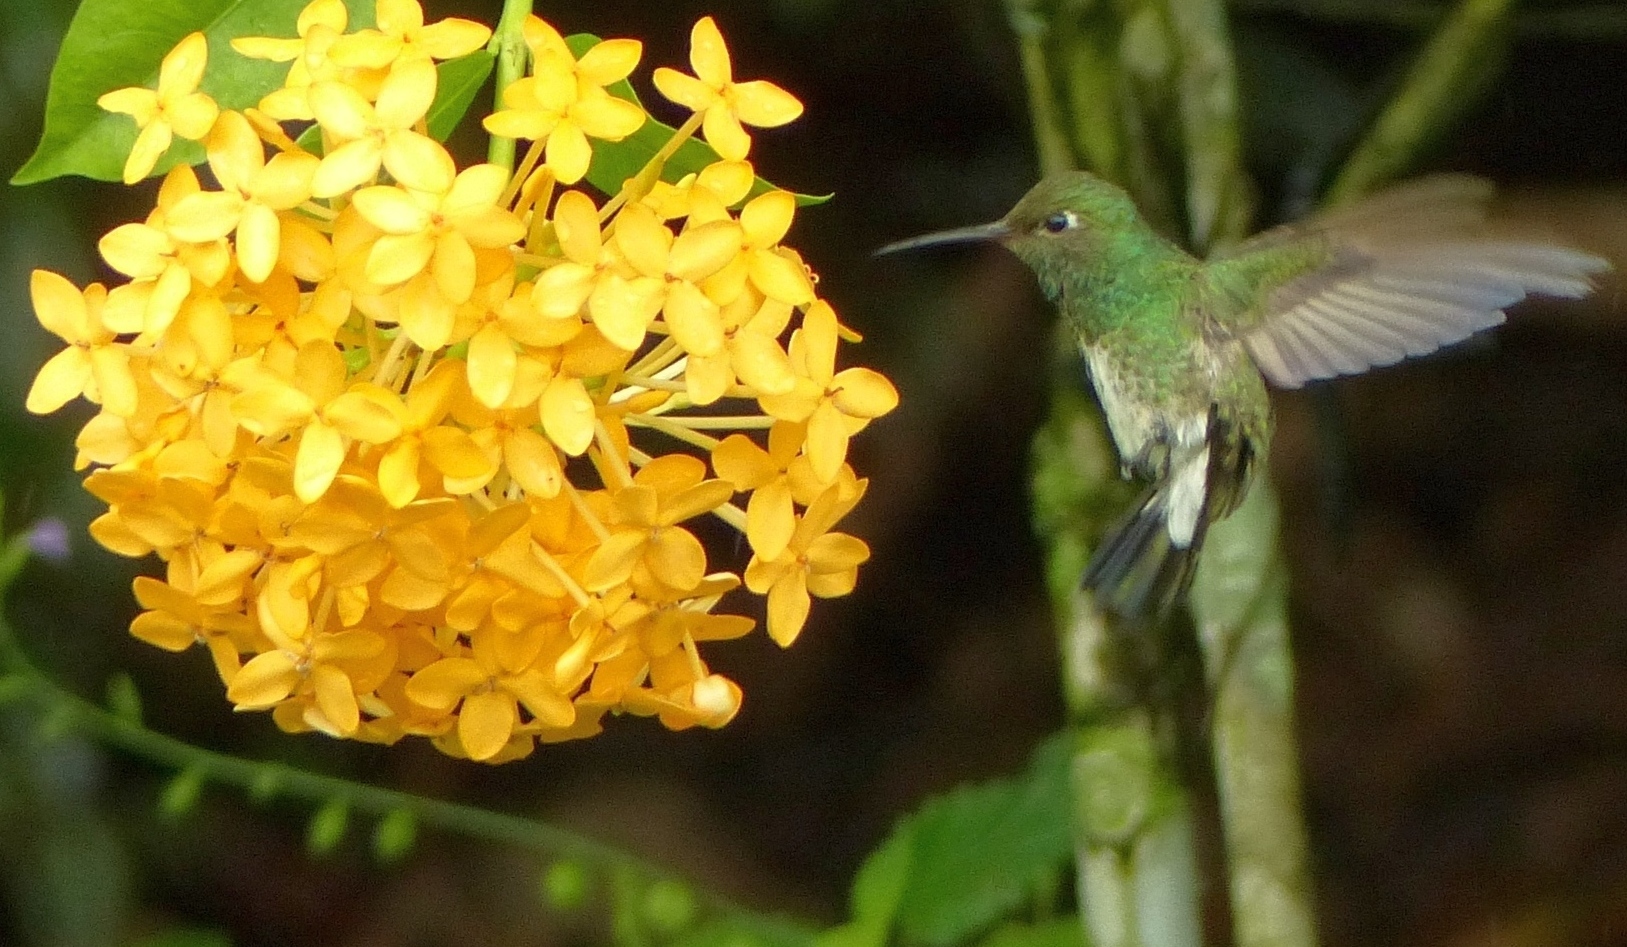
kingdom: Animalia
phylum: Chordata
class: Aves
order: Apodiformes
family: Trochilidae
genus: Chionomesa
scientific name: Chionomesa fimbriata
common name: Glittering-throated emerald
